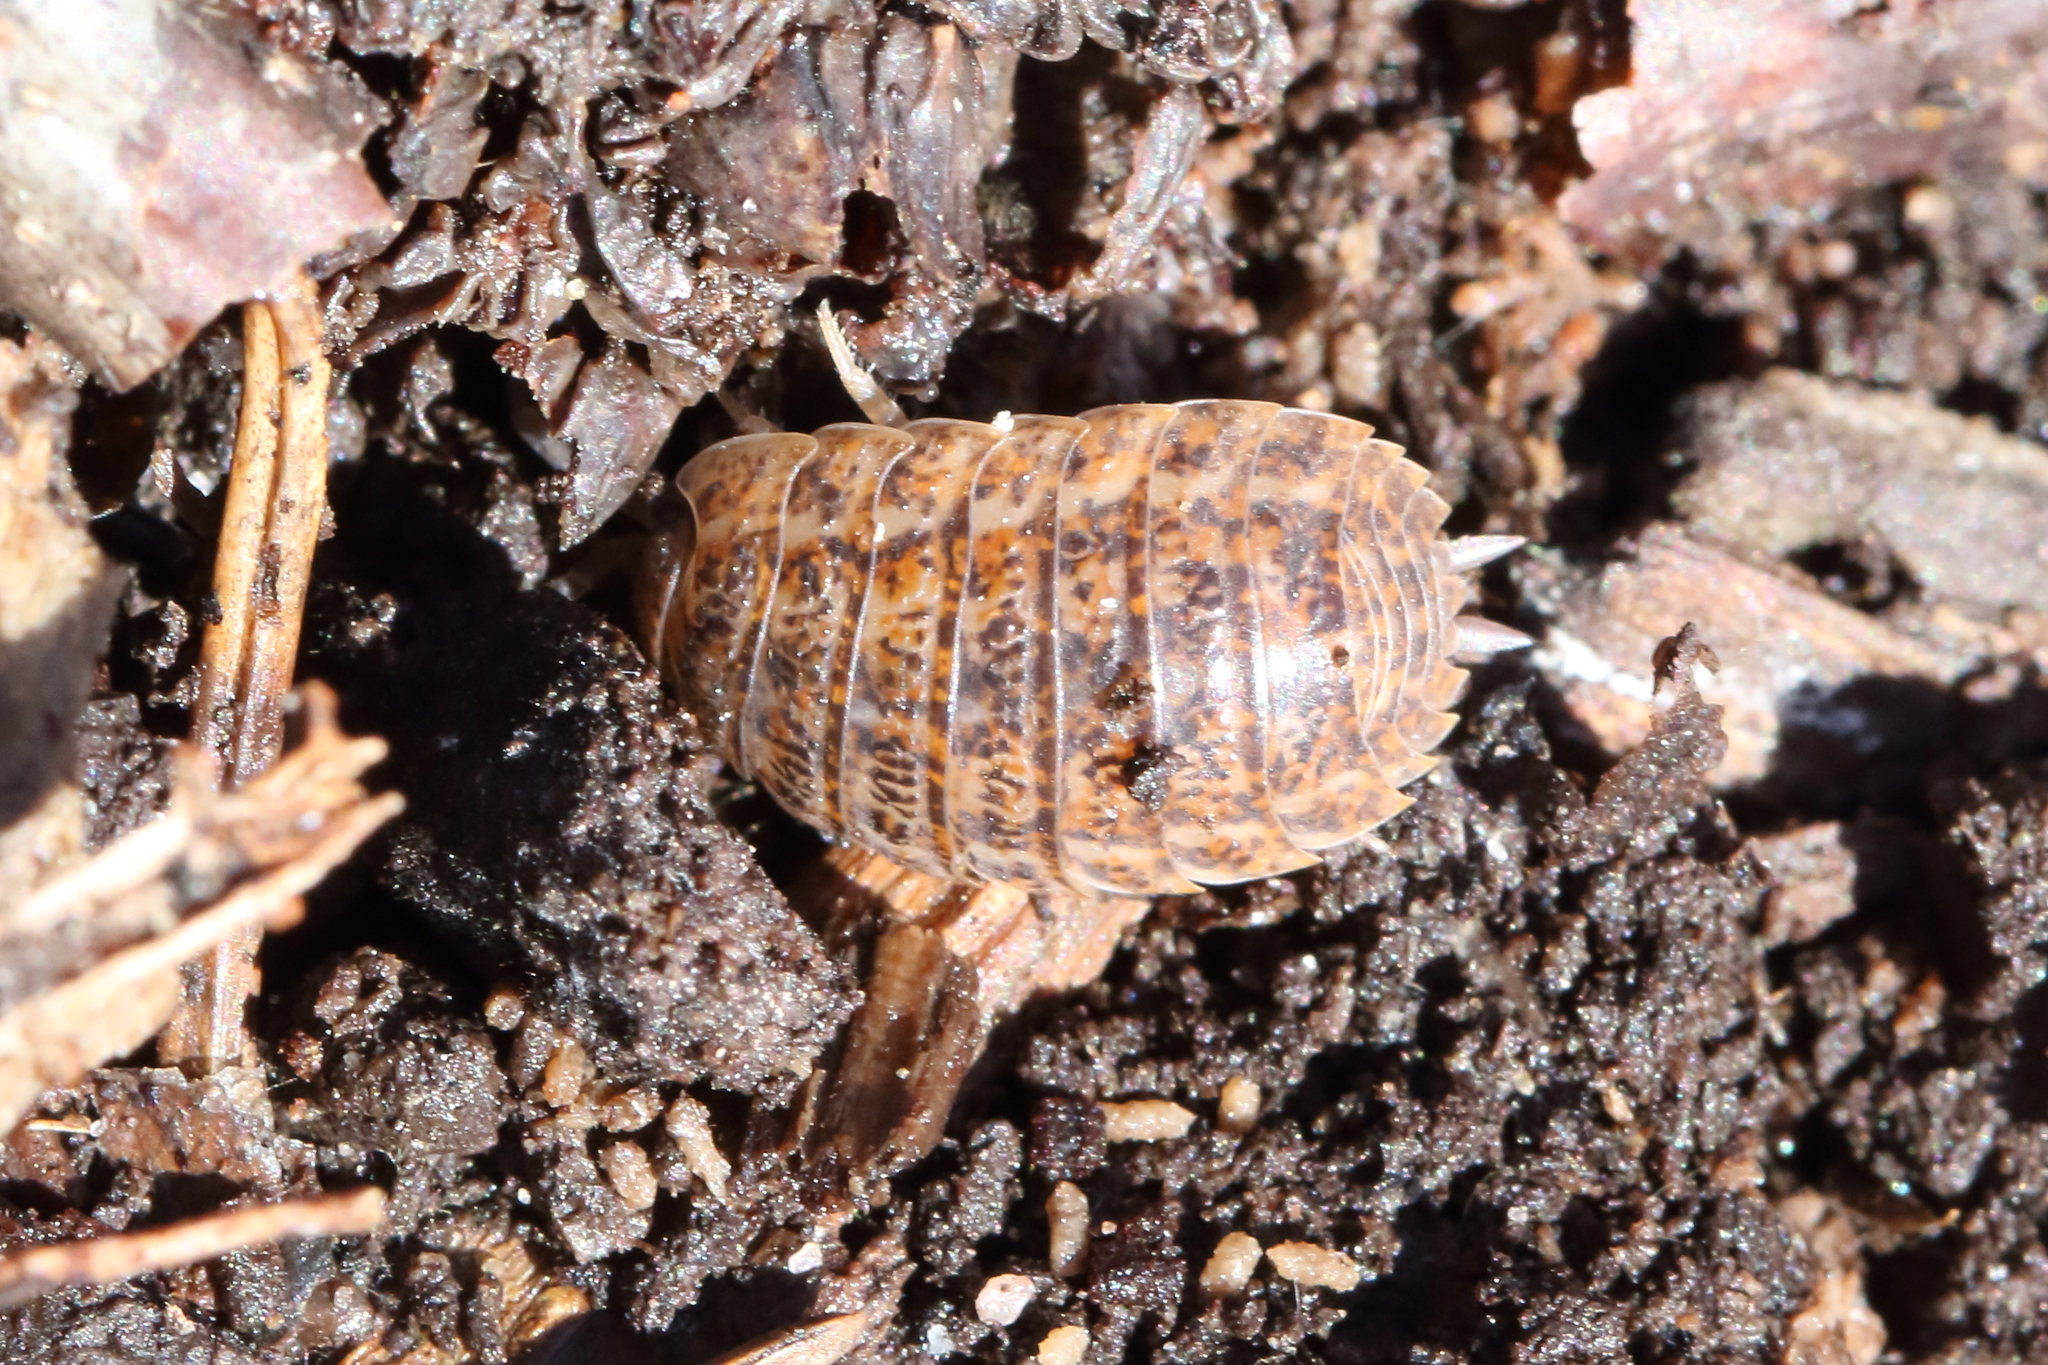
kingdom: Animalia
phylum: Arthropoda
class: Malacostraca
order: Isopoda
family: Trachelipodidae
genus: Trachelipus
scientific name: Trachelipus rathkii
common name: Isopod
